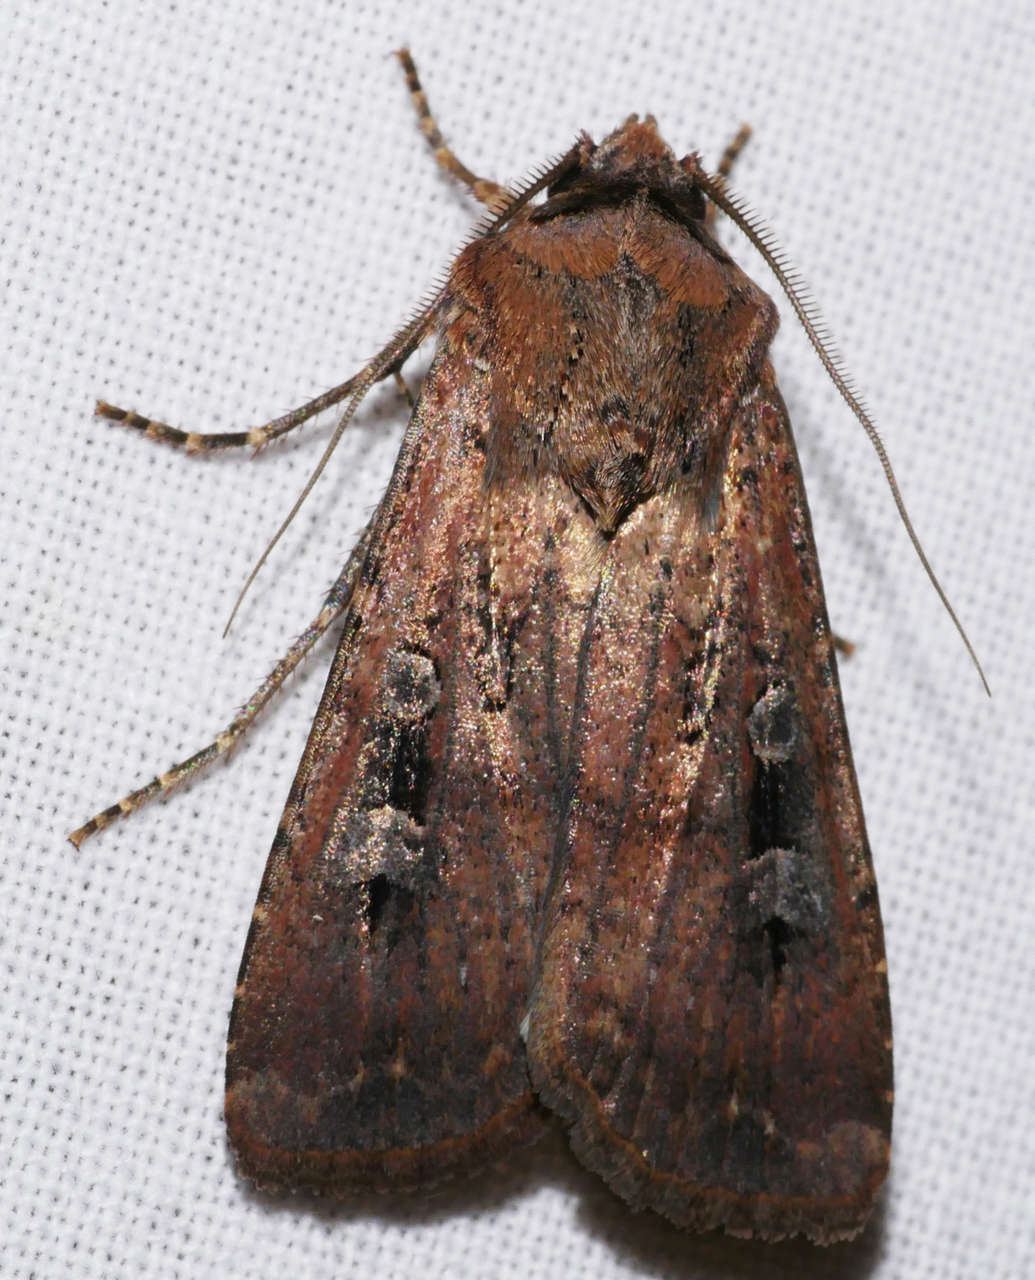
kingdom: Animalia
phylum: Arthropoda
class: Insecta
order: Lepidoptera
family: Noctuidae
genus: Agrotis
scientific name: Agrotis infusa
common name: Bogong moth
